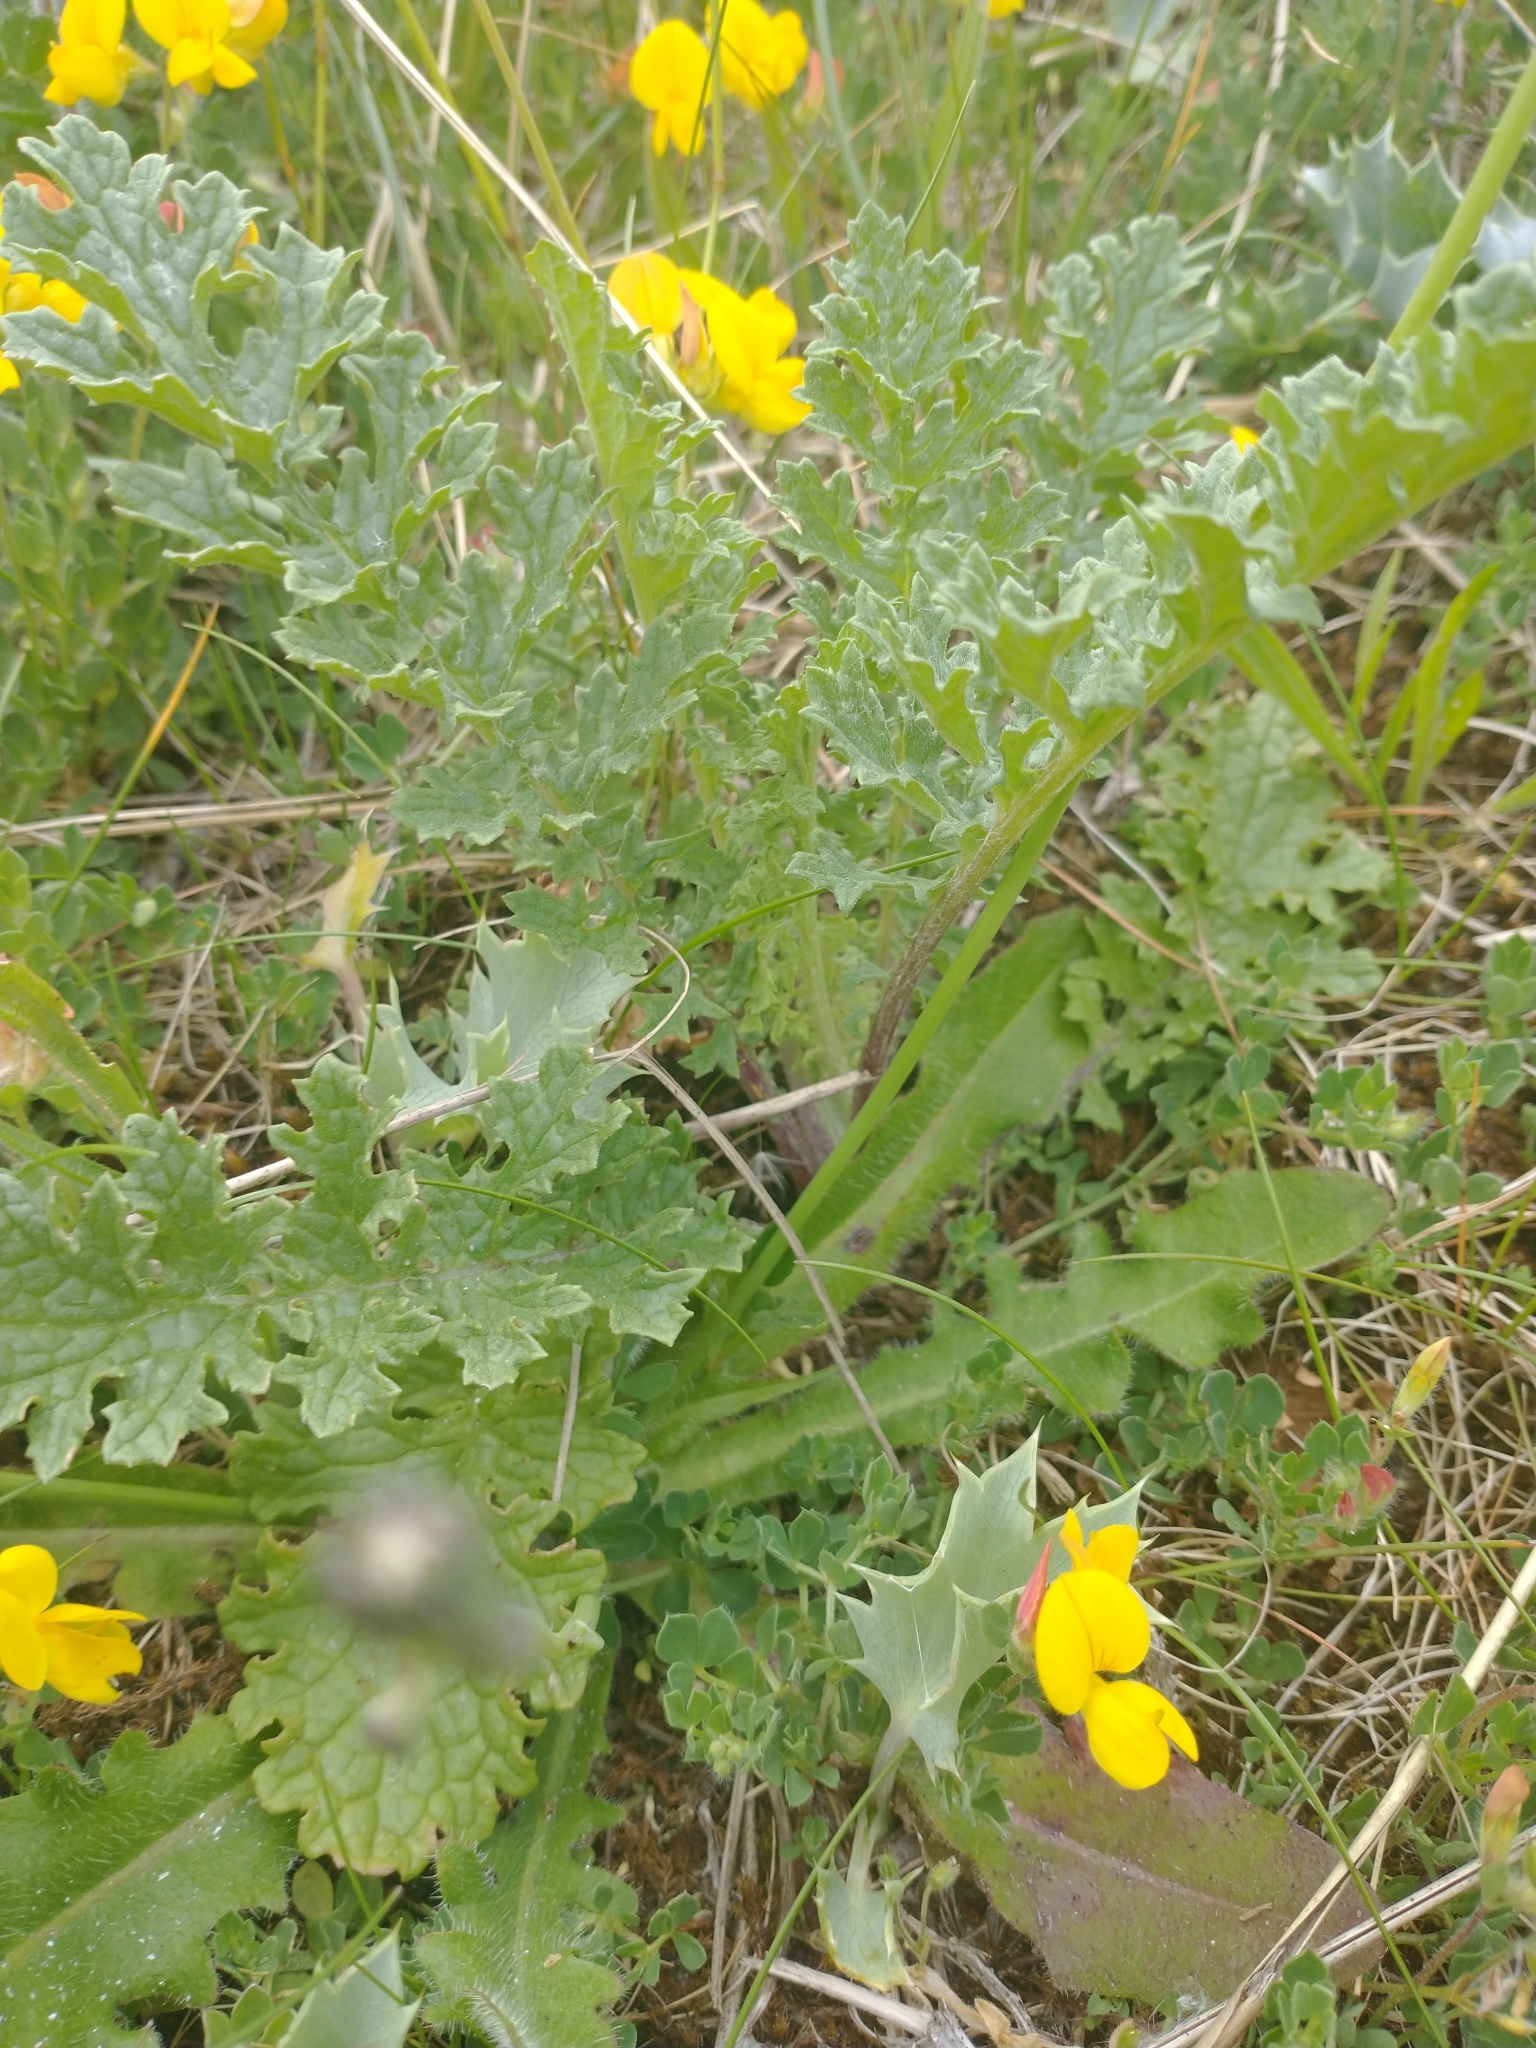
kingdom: Plantae
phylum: Tracheophyta
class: Magnoliopsida
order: Asterales
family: Asteraceae
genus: Jacobaea
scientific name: Jacobaea vulgaris
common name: Stinking willie
